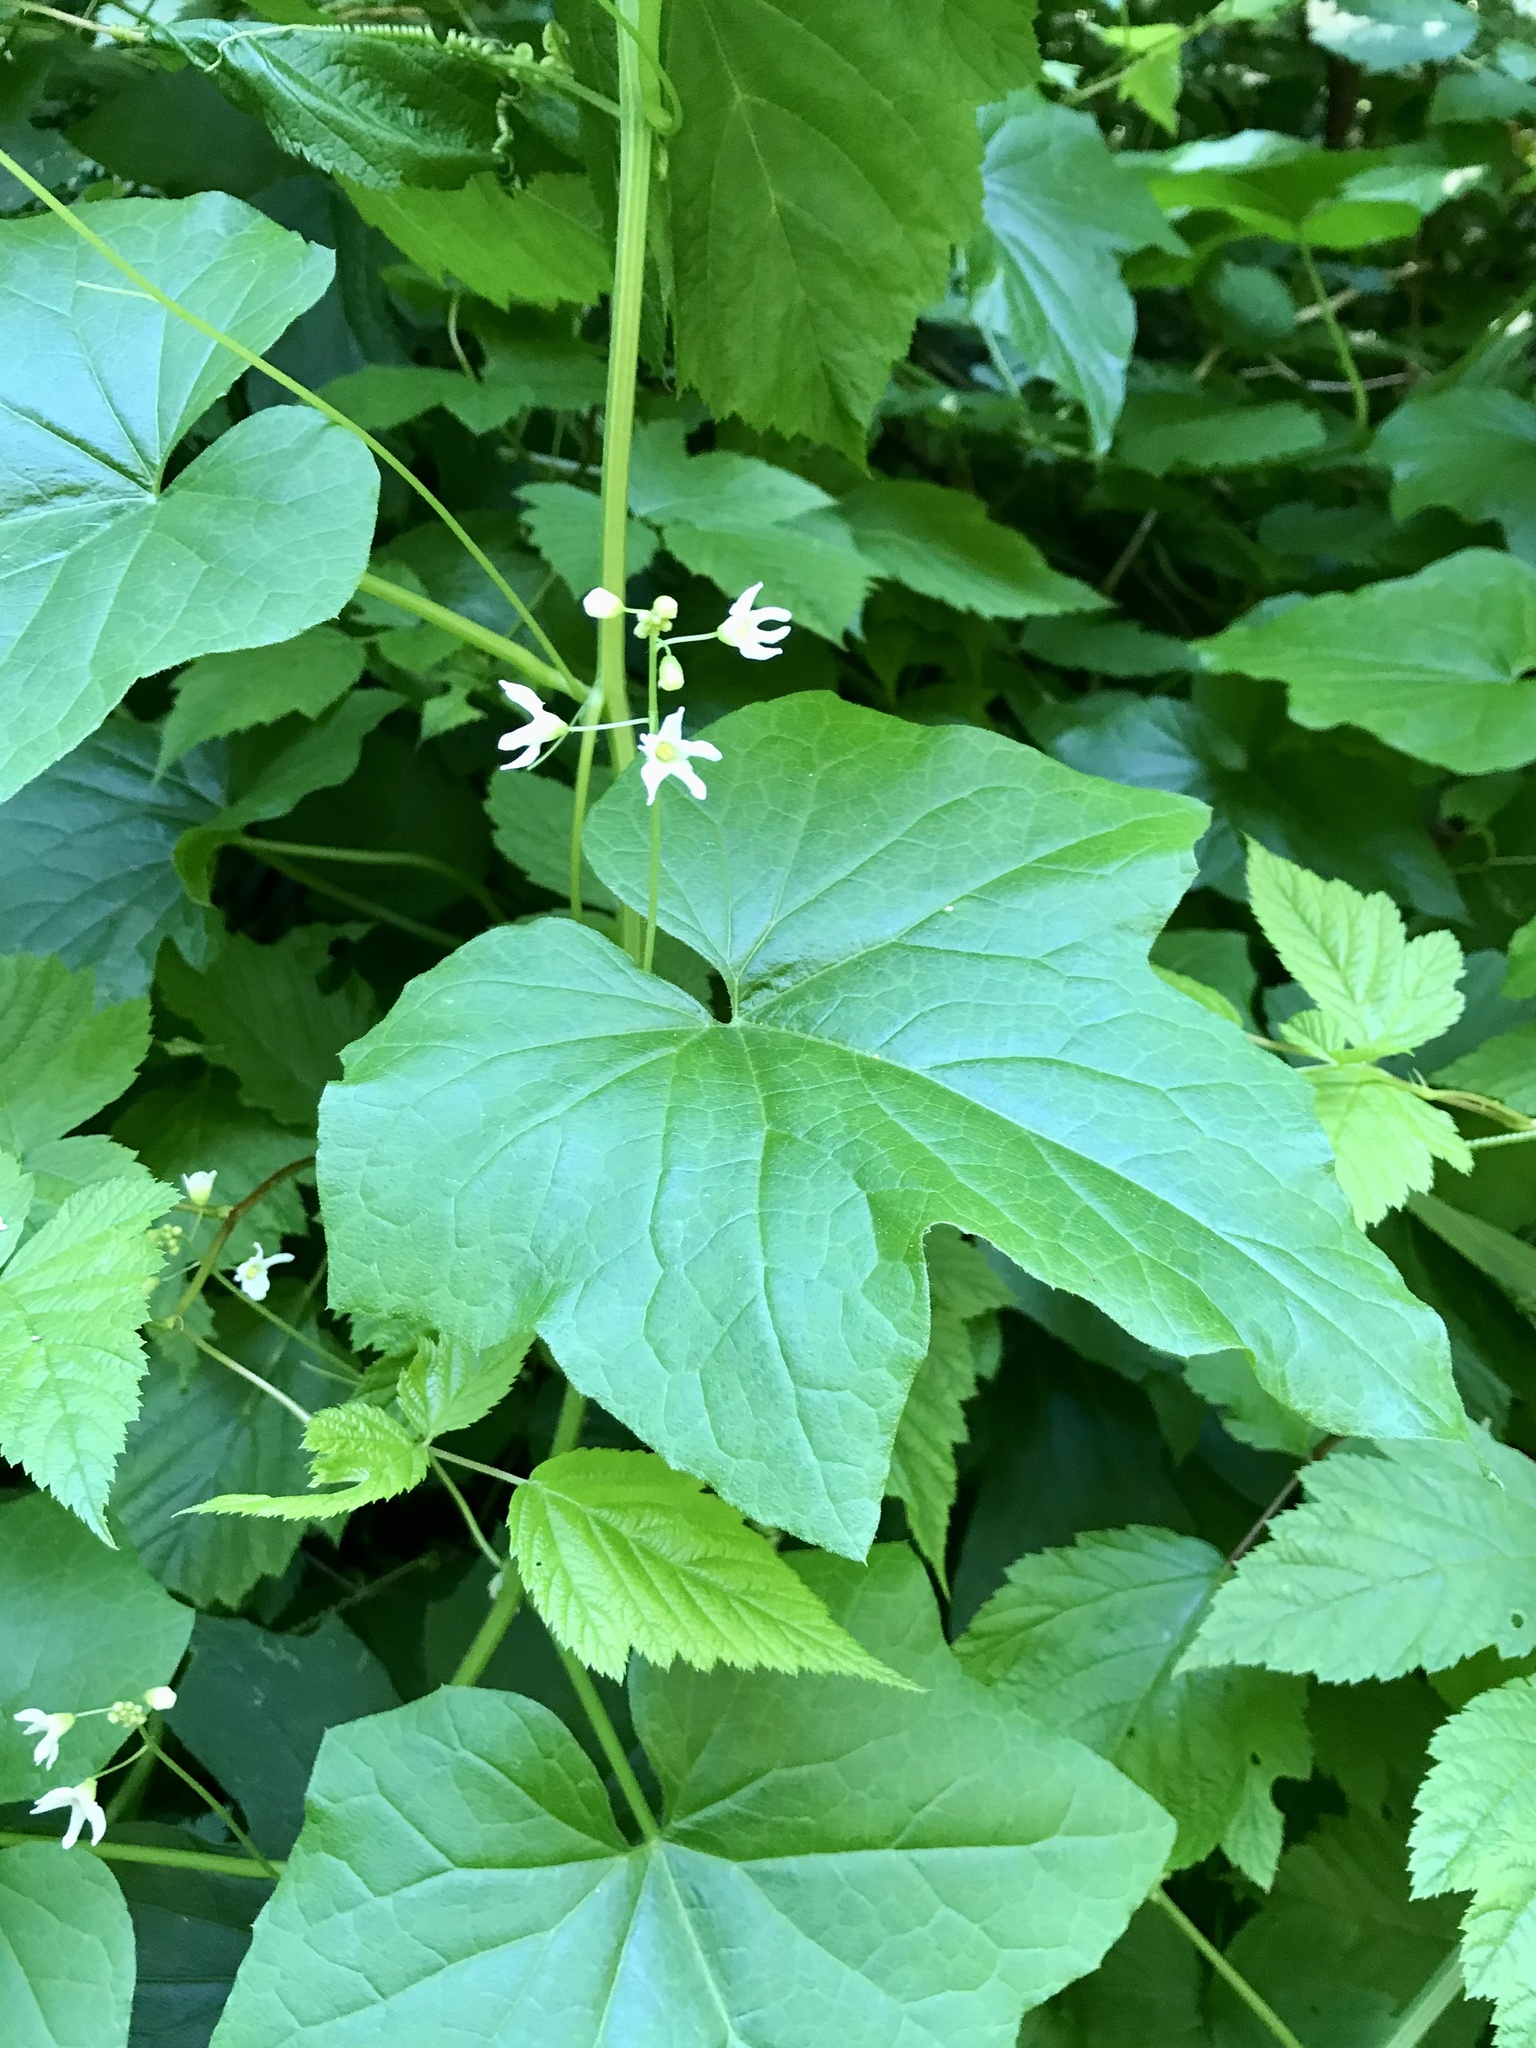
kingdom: Plantae
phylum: Tracheophyta
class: Magnoliopsida
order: Cucurbitales
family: Cucurbitaceae
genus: Marah
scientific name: Marah oregana
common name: Coastal manroot
